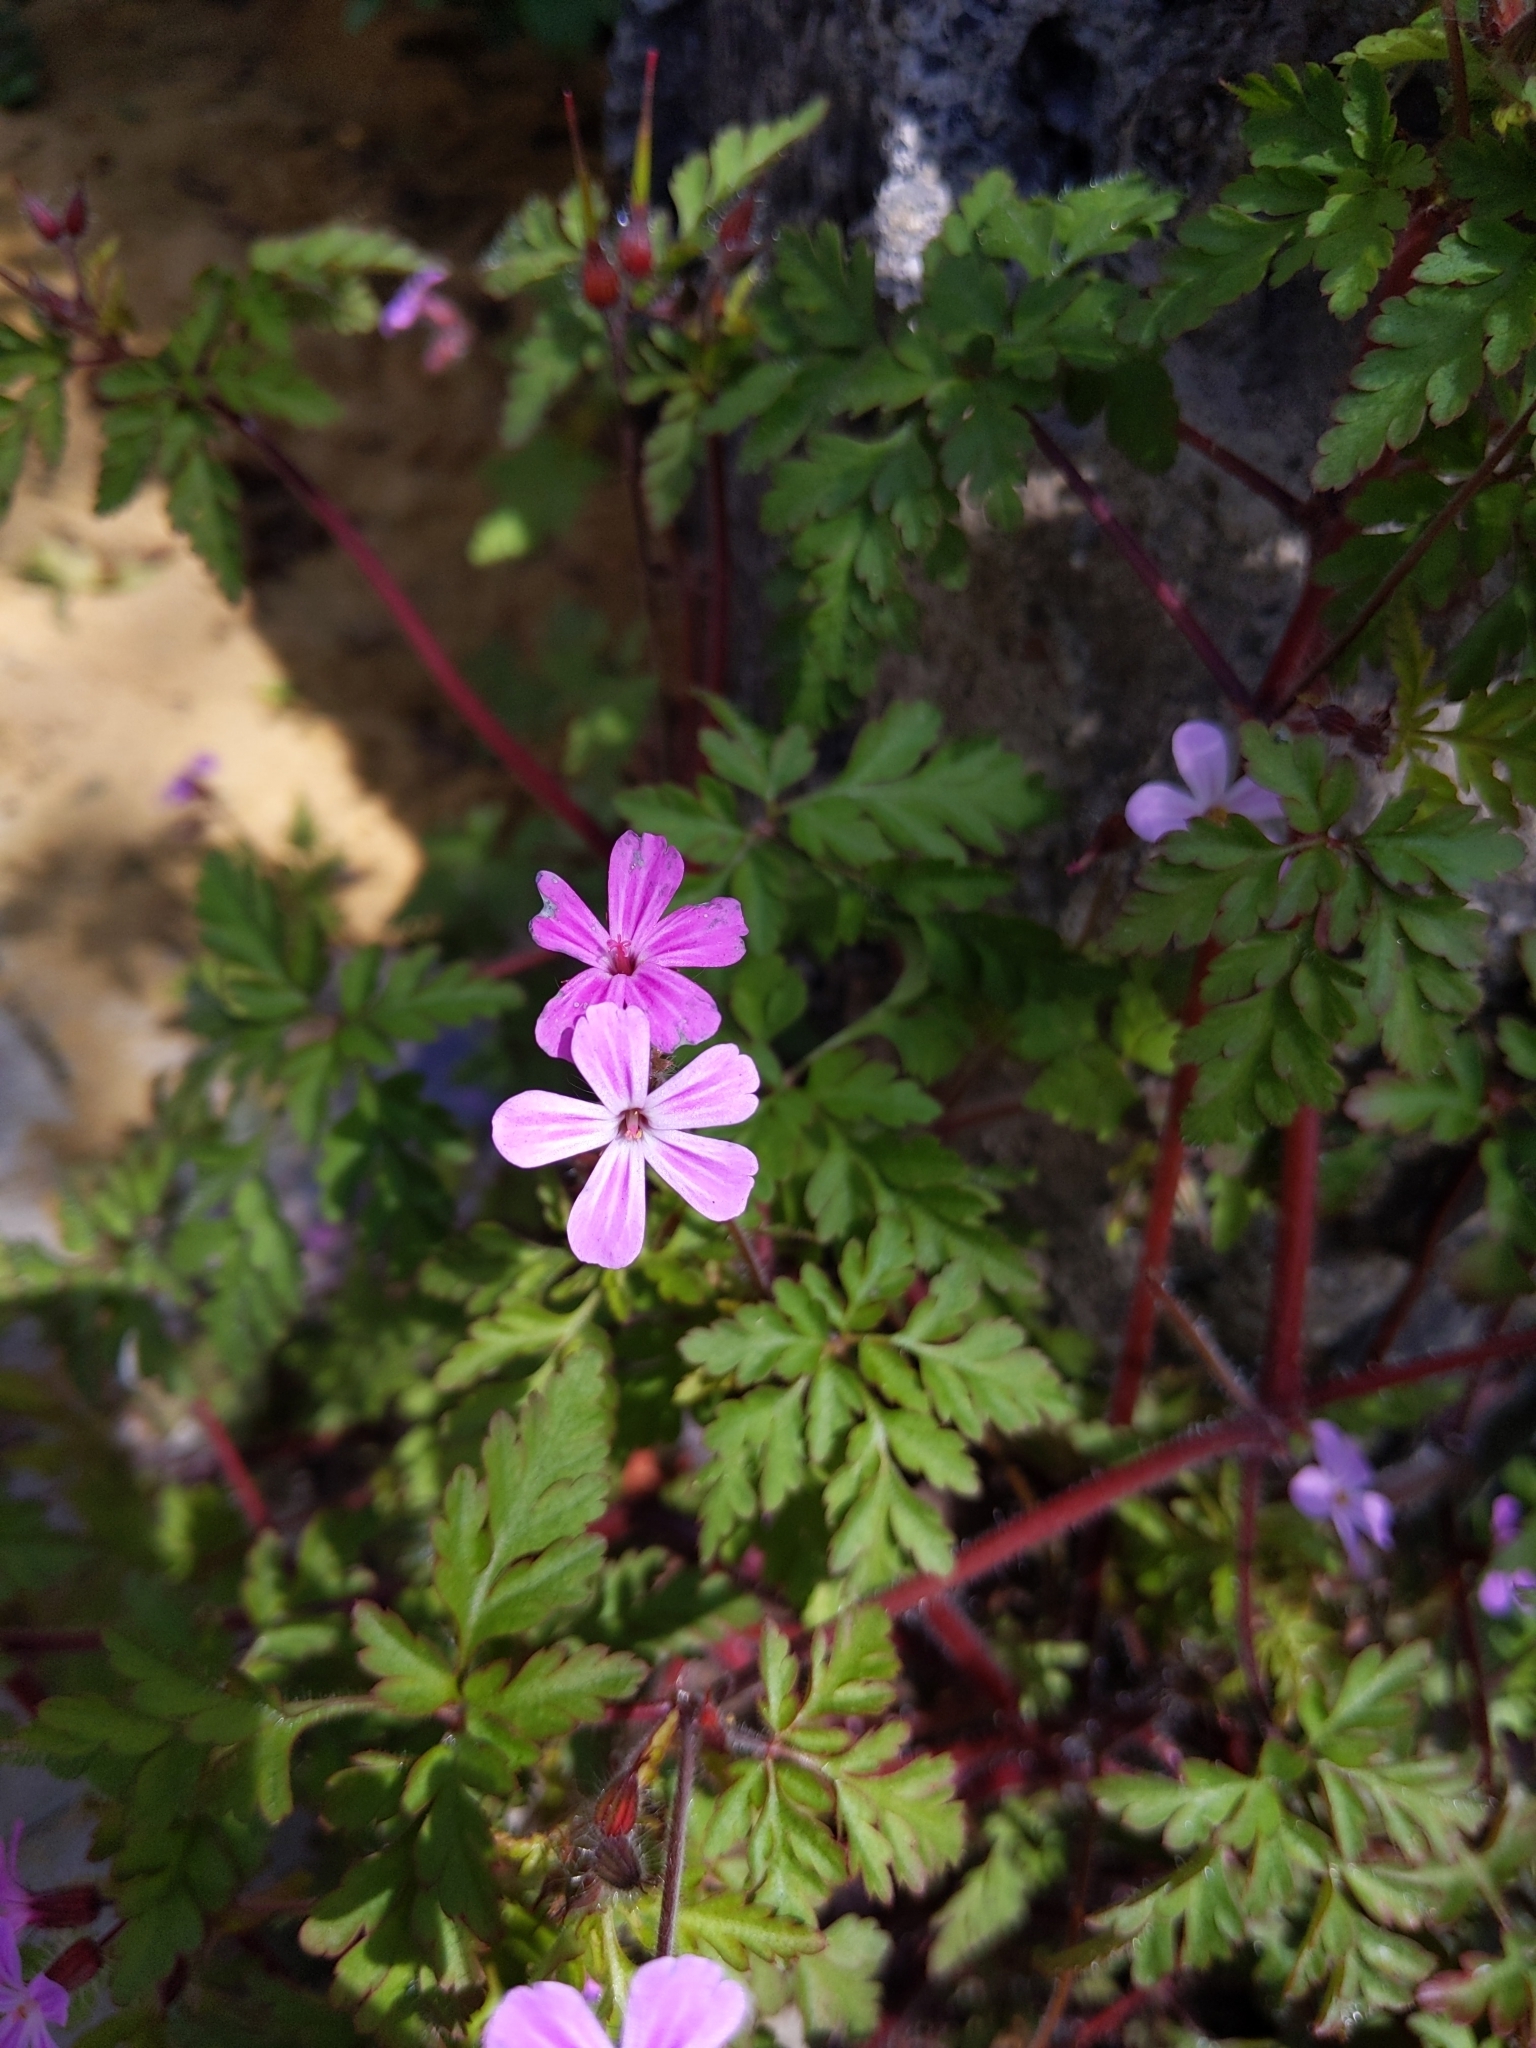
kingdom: Plantae
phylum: Tracheophyta
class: Magnoliopsida
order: Geraniales
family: Geraniaceae
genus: Geranium
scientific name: Geranium robertianum
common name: Herb-robert
